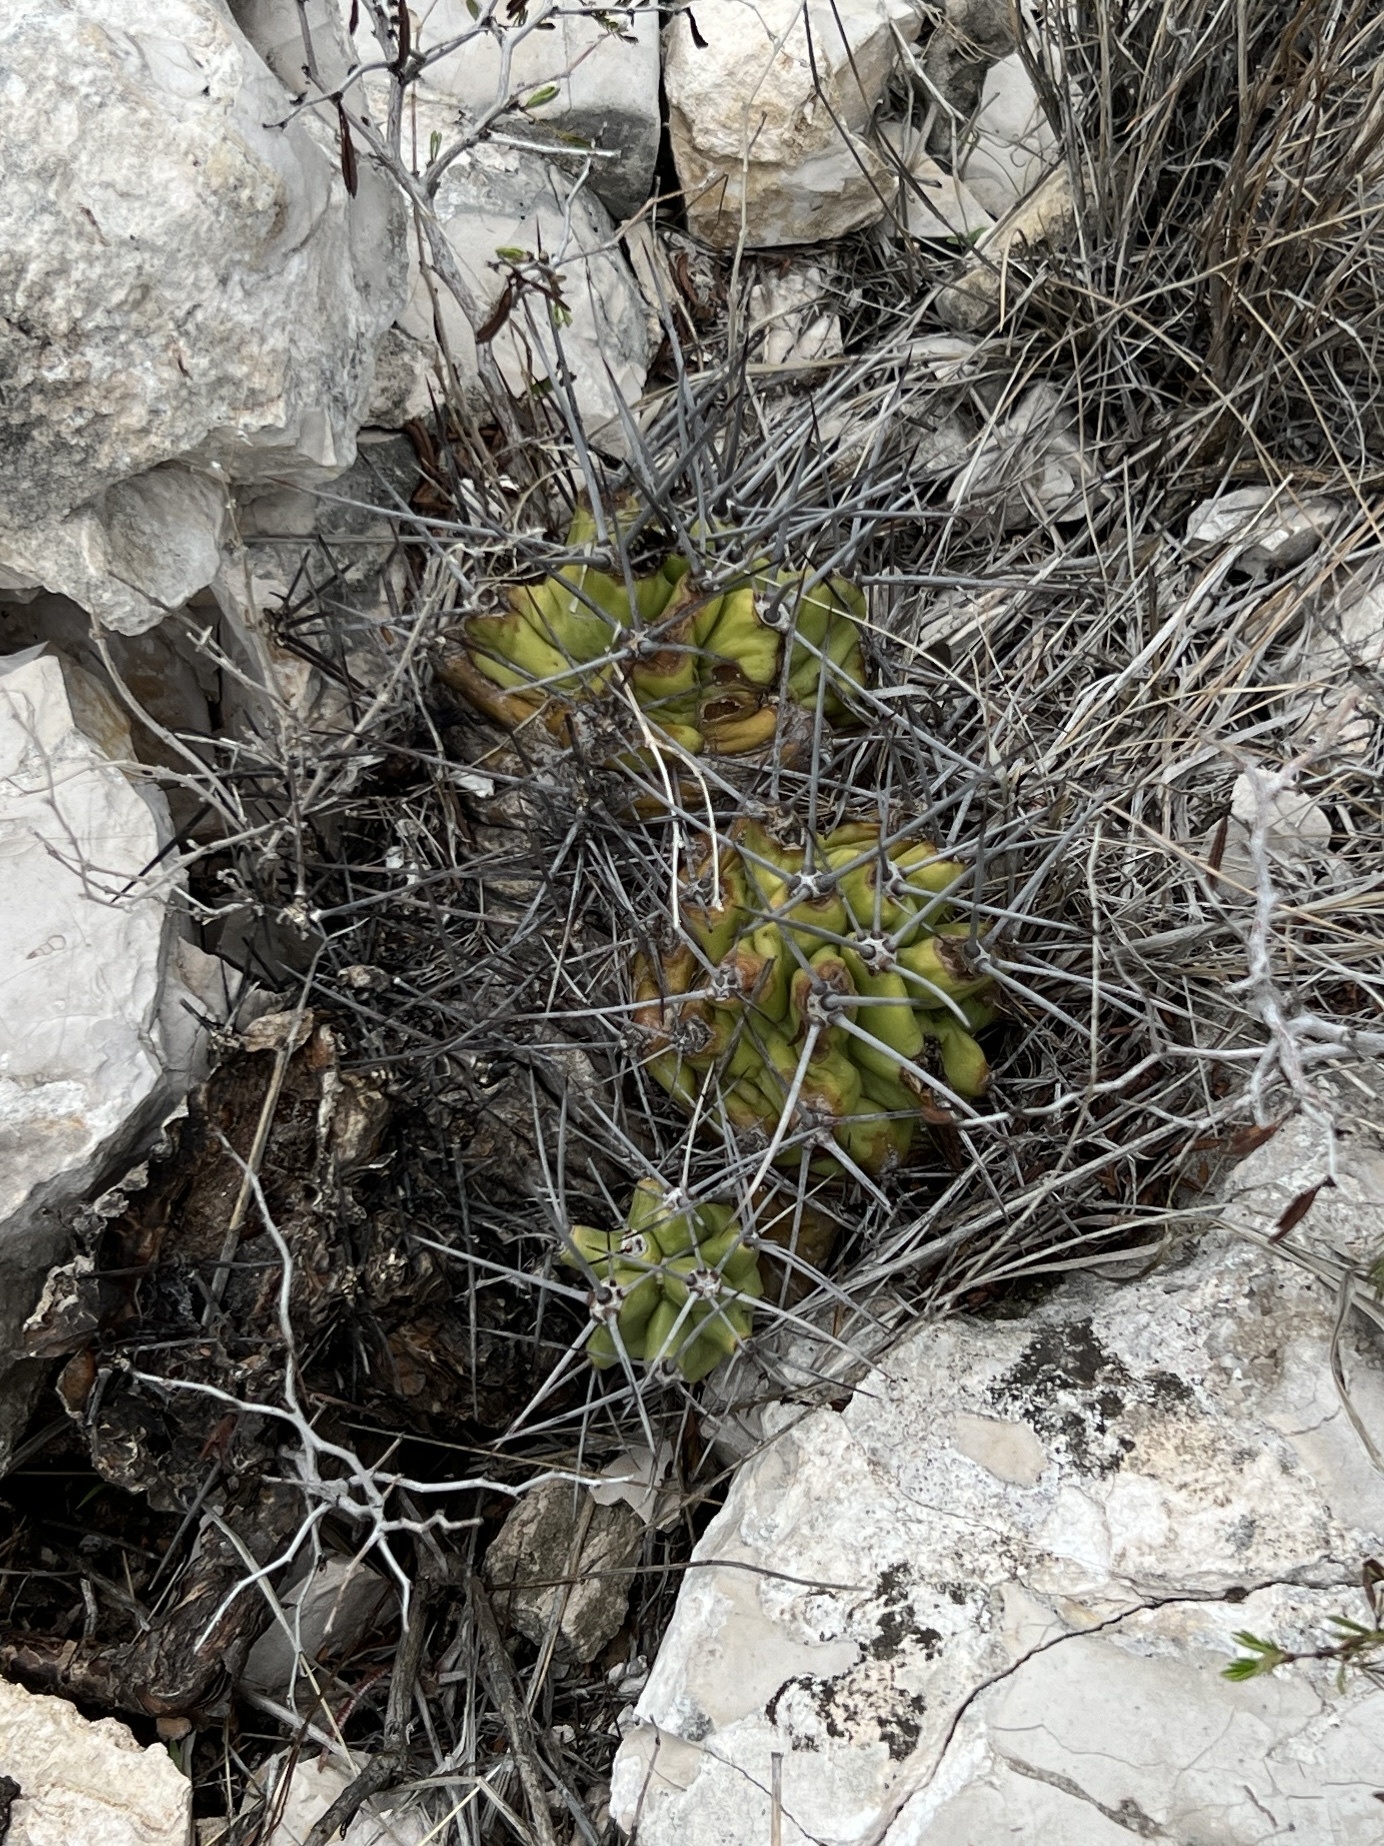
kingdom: Plantae
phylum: Tracheophyta
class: Magnoliopsida
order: Caryophyllales
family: Cactaceae
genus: Echinocereus
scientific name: Echinocereus coccineus
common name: Scarlet hedgehog cactus
